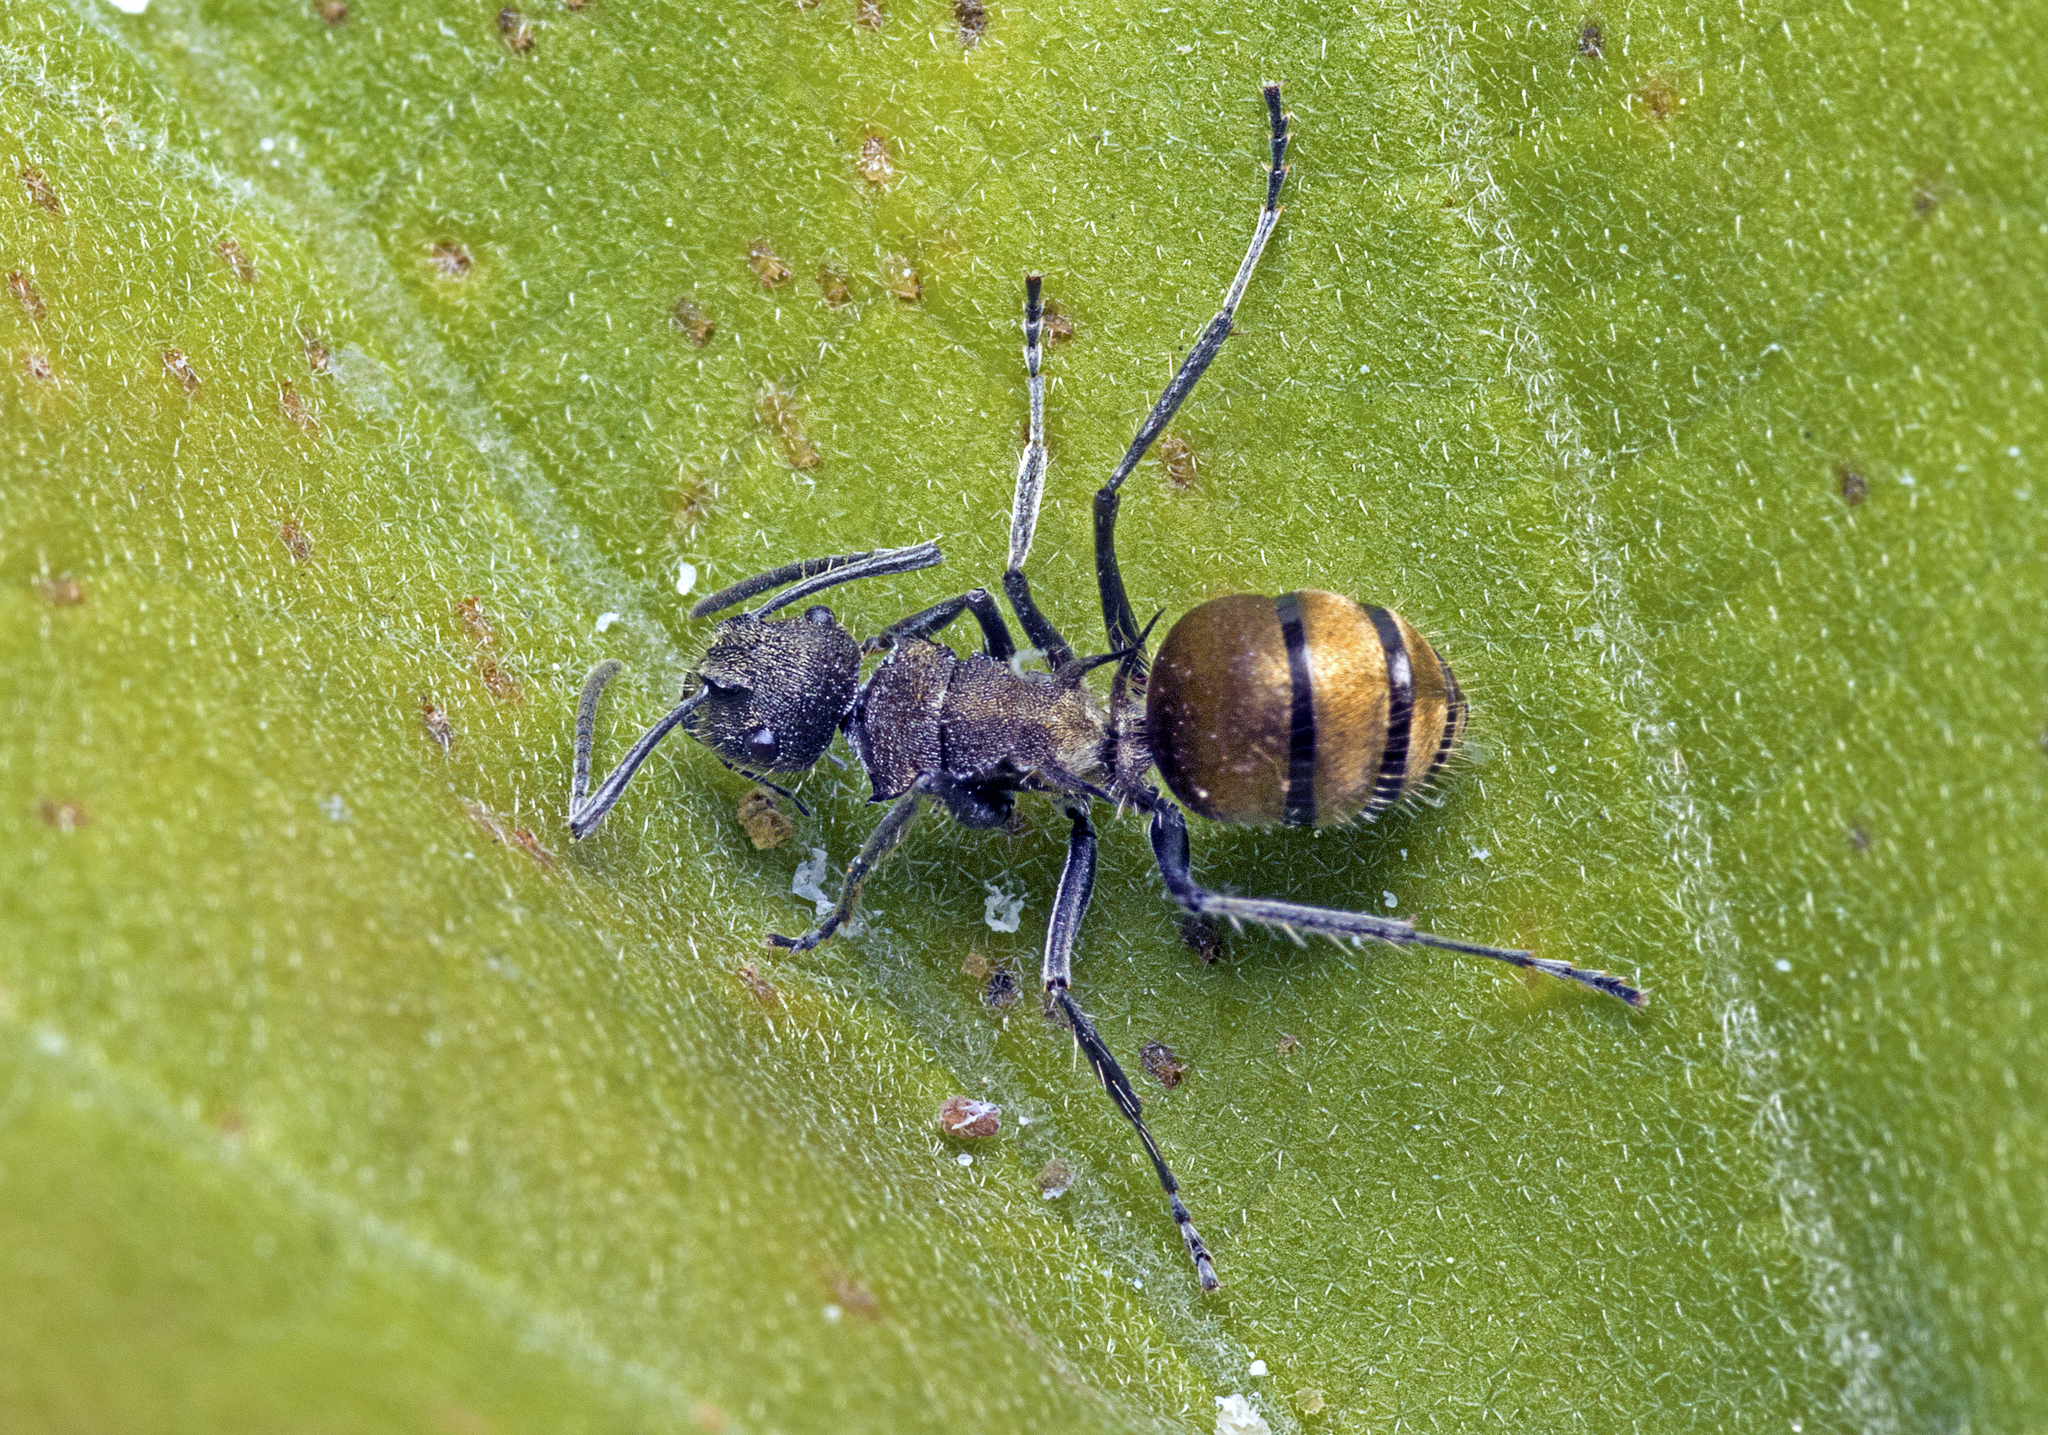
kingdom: Animalia
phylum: Arthropoda
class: Insecta
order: Hymenoptera
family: Formicidae
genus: Polyrhachis
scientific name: Polyrhachis aurea
